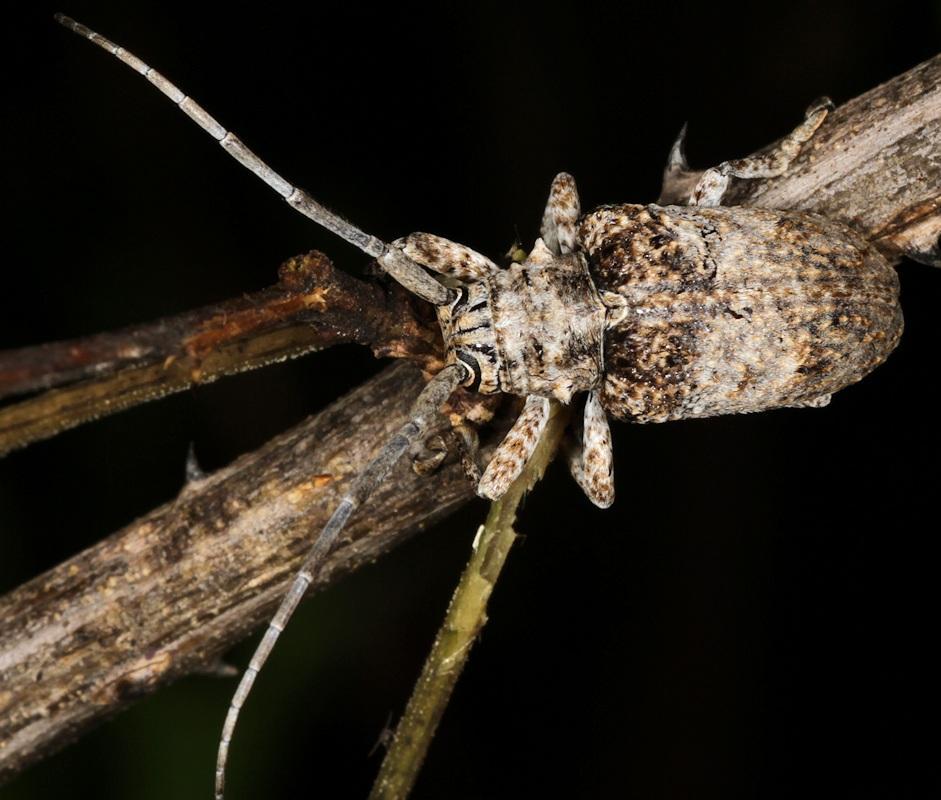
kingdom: Animalia
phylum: Arthropoda
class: Insecta
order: Coleoptera
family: Cerambycidae
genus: Crossotus
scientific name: Crossotus stypticus
